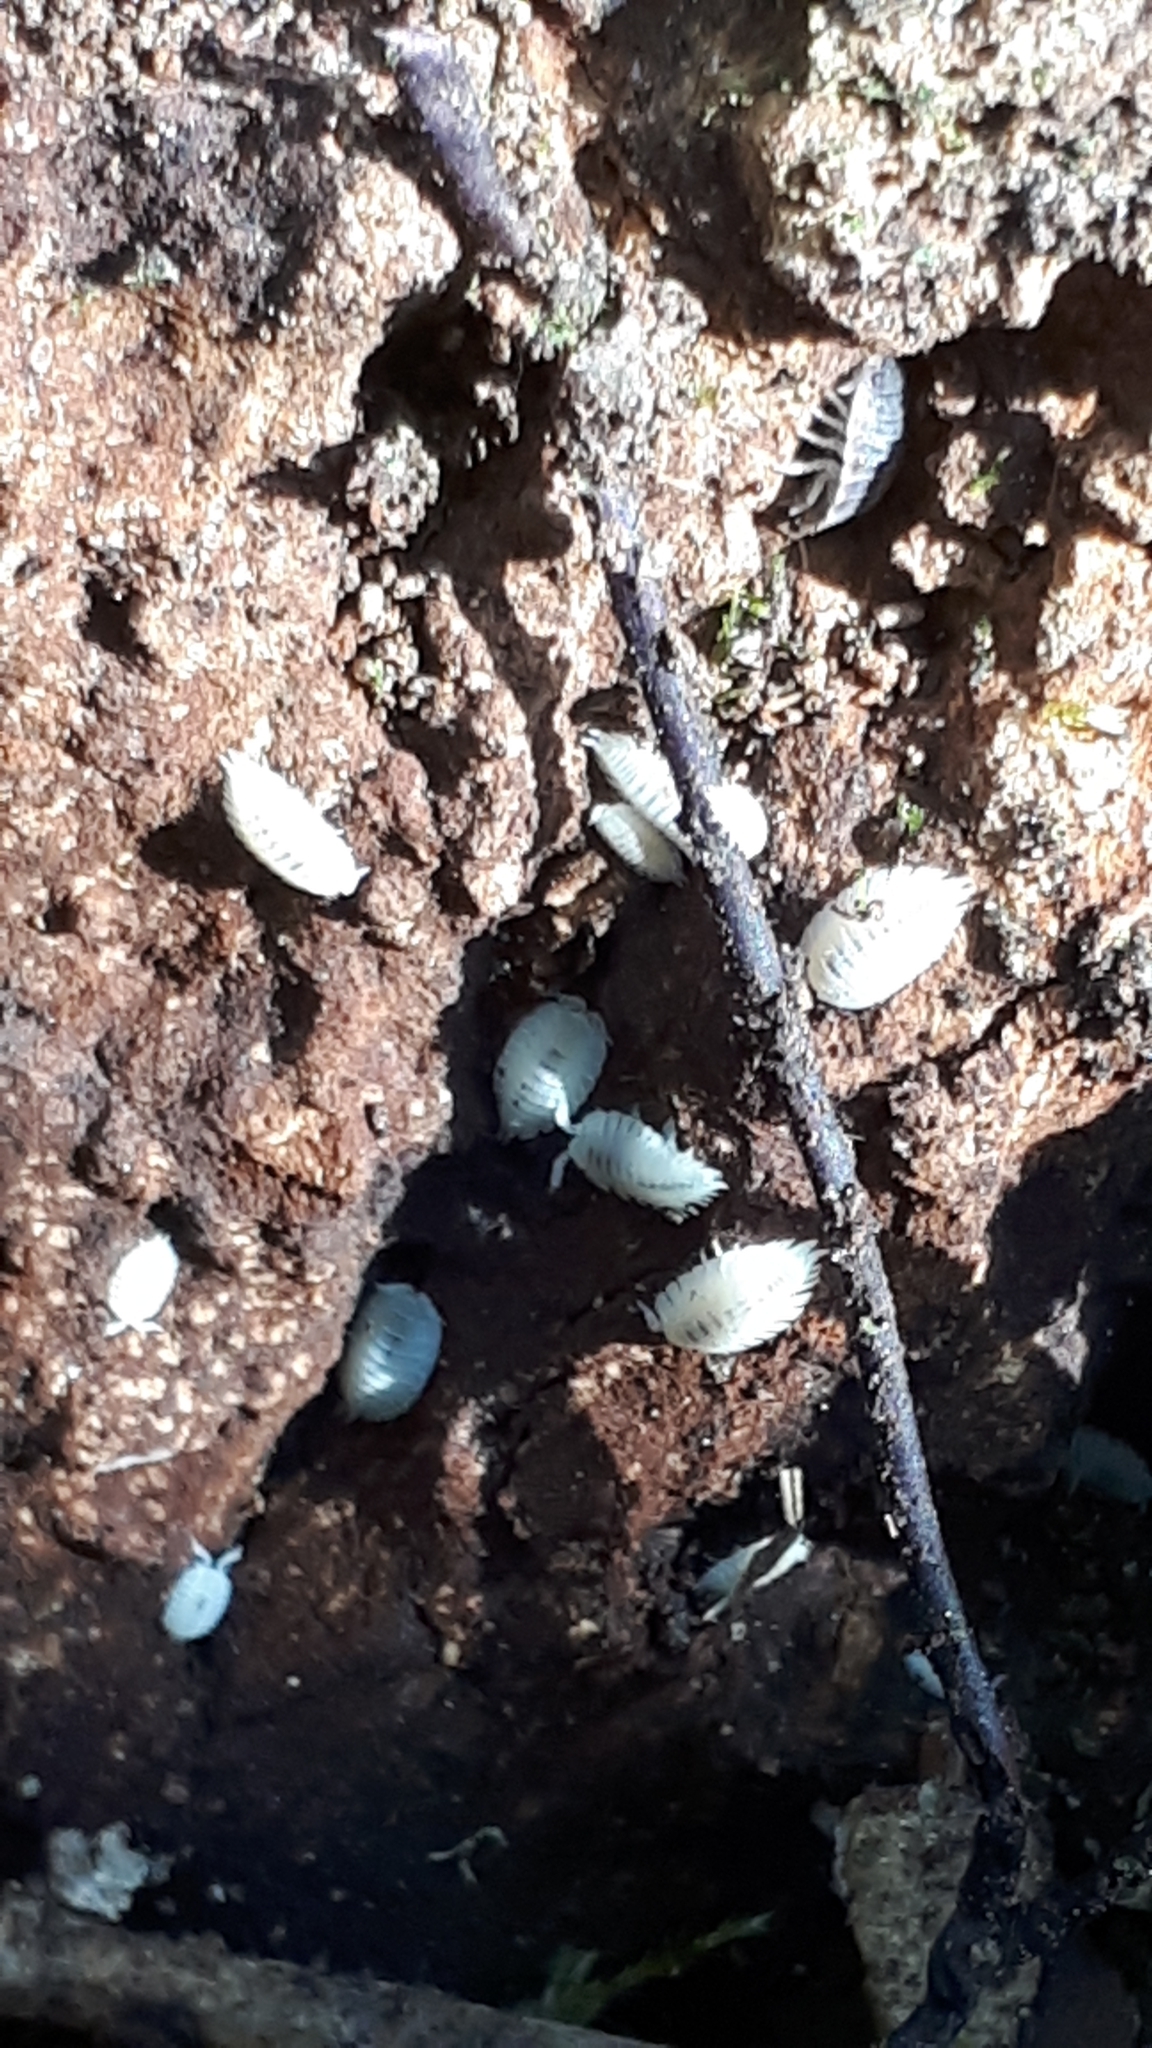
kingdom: Animalia
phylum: Arthropoda
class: Malacostraca
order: Isopoda
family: Platyarthridae
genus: Platyarthrus
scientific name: Platyarthrus hoffmannseggii
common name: Ant woodlouse
